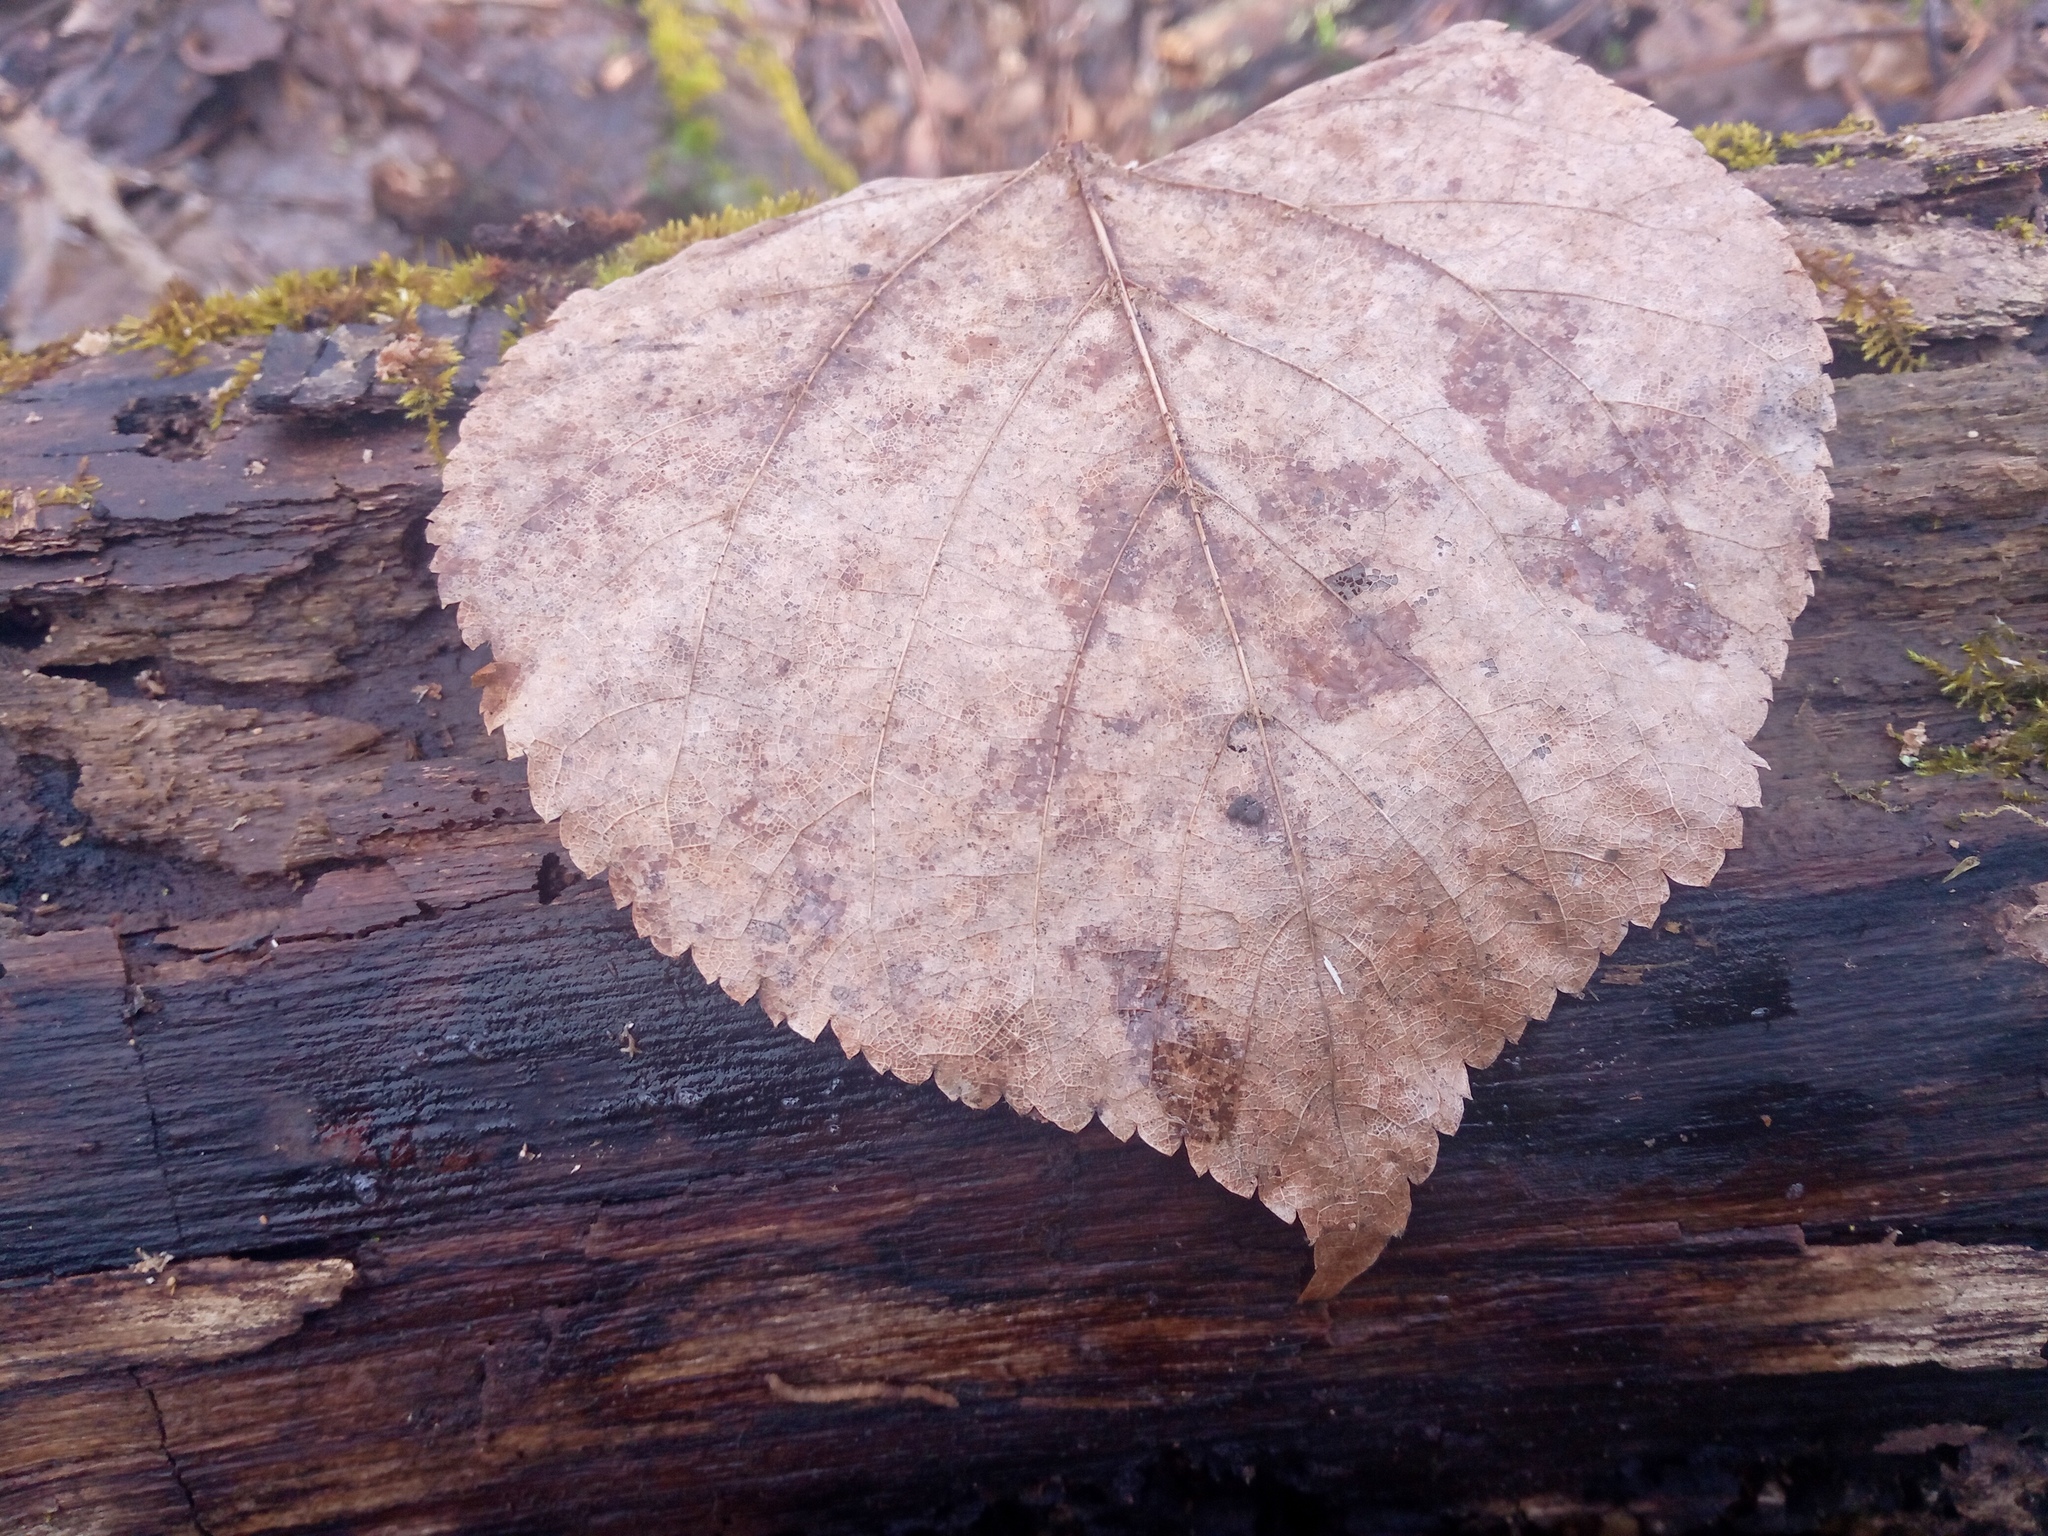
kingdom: Plantae
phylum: Tracheophyta
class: Magnoliopsida
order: Malvales
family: Malvaceae
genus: Tilia
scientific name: Tilia cordata
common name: Small-leaved lime
